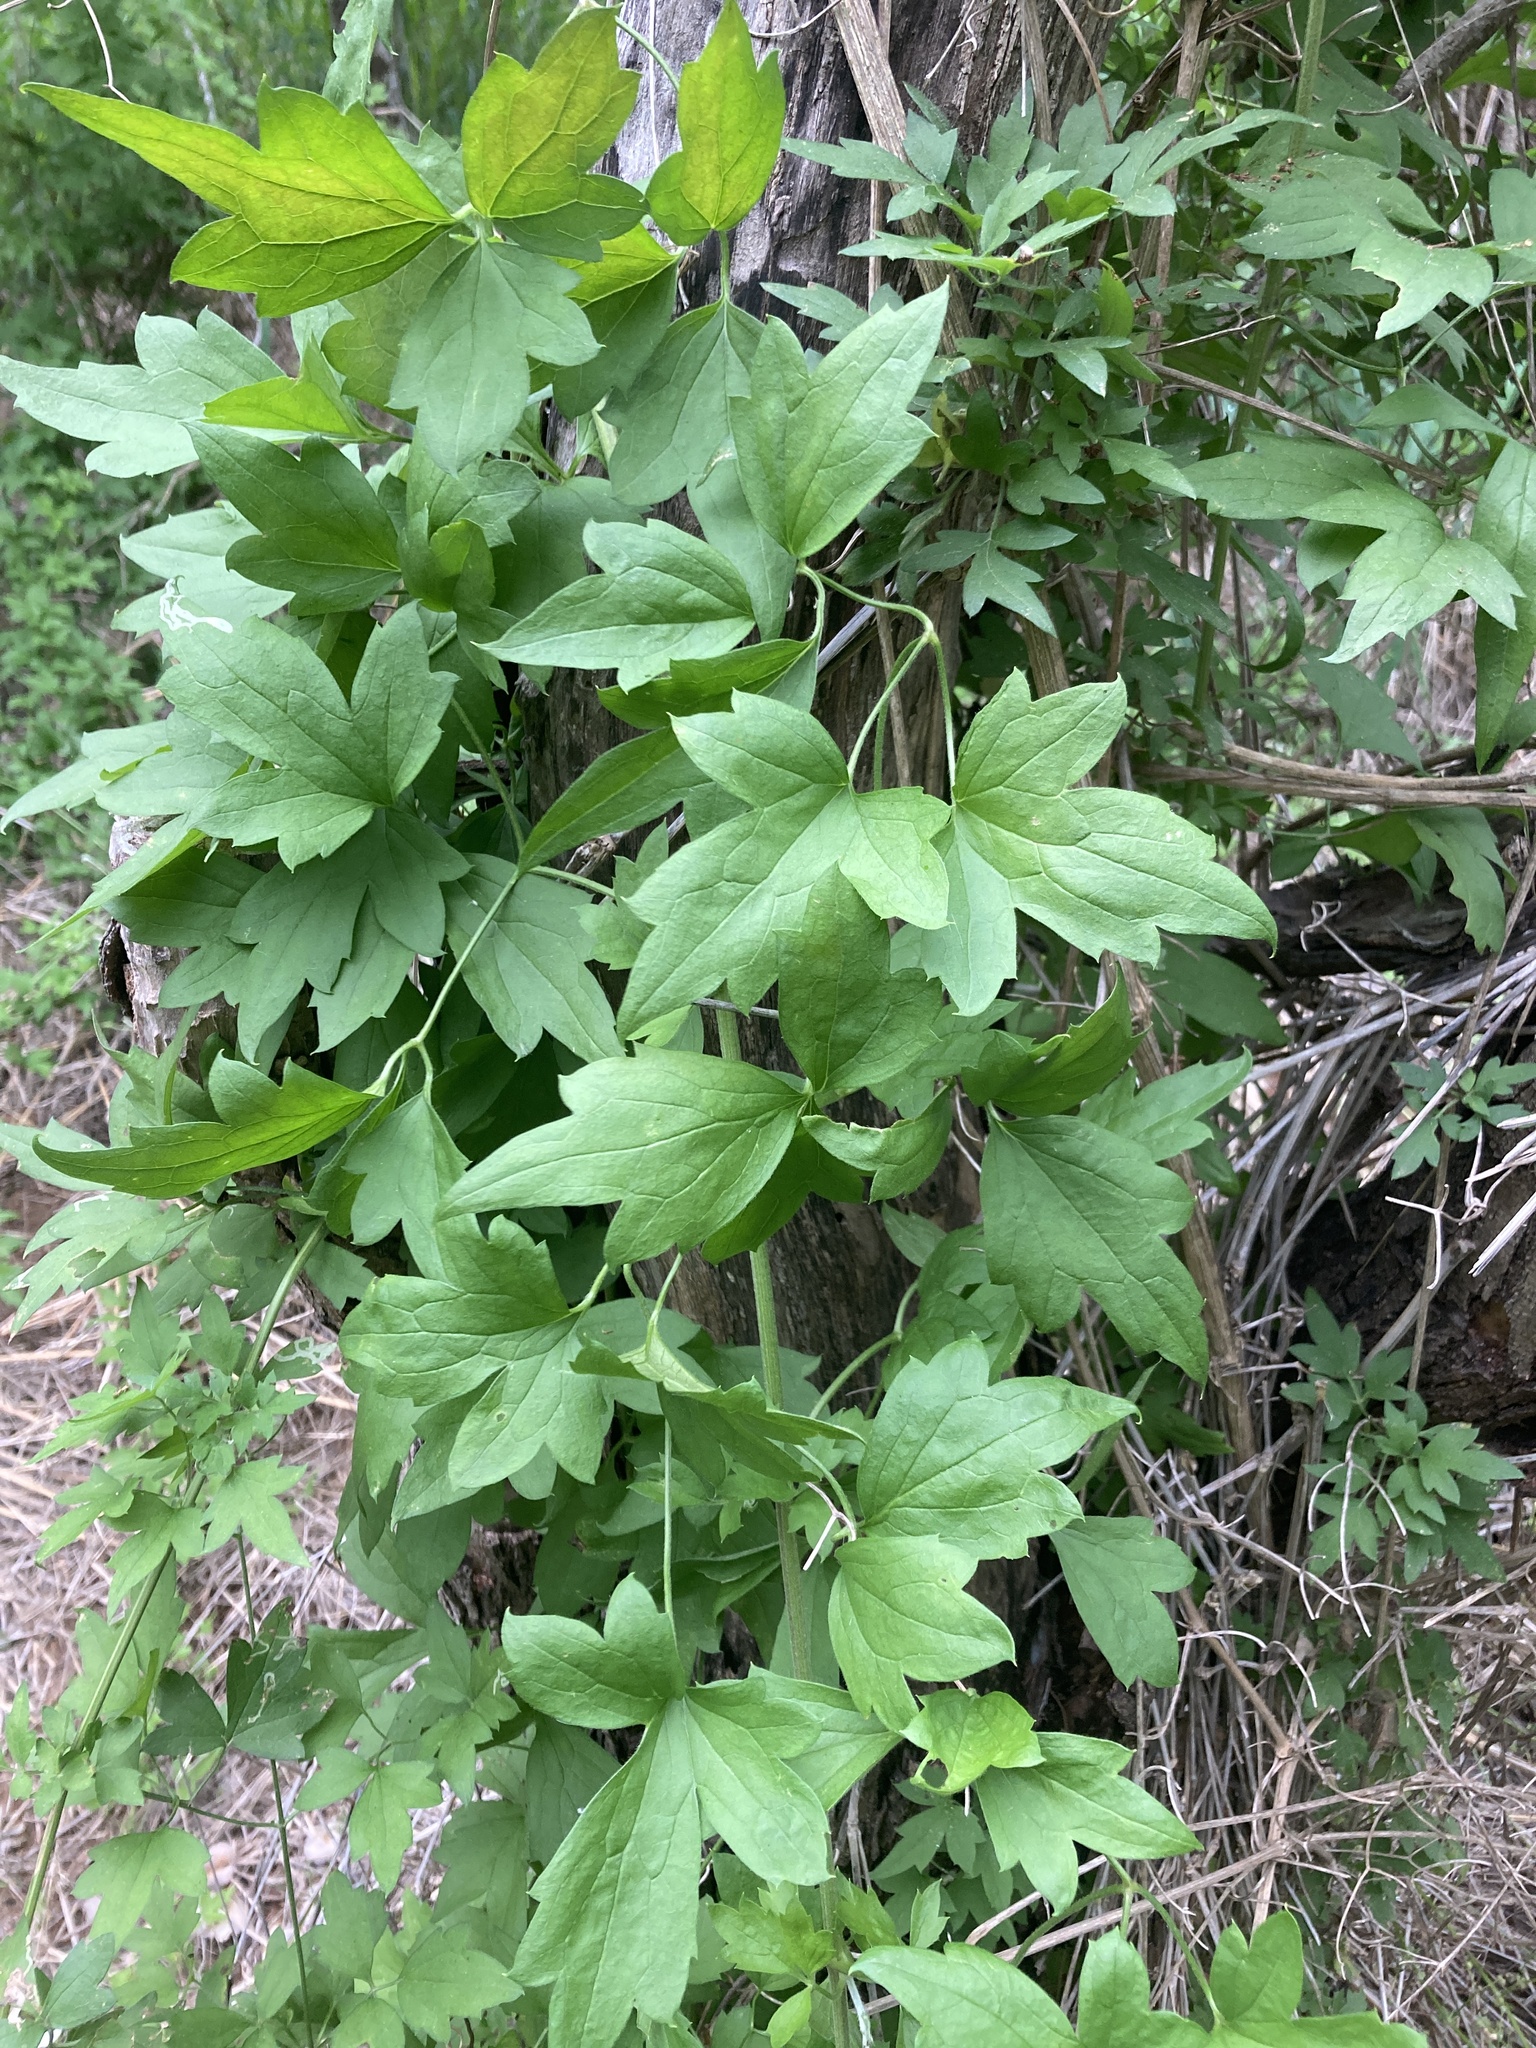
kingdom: Plantae
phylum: Tracheophyta
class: Magnoliopsida
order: Ranunculales
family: Ranunculaceae
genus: Clematis
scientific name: Clematis drummondii
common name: Texas virgin's bower
